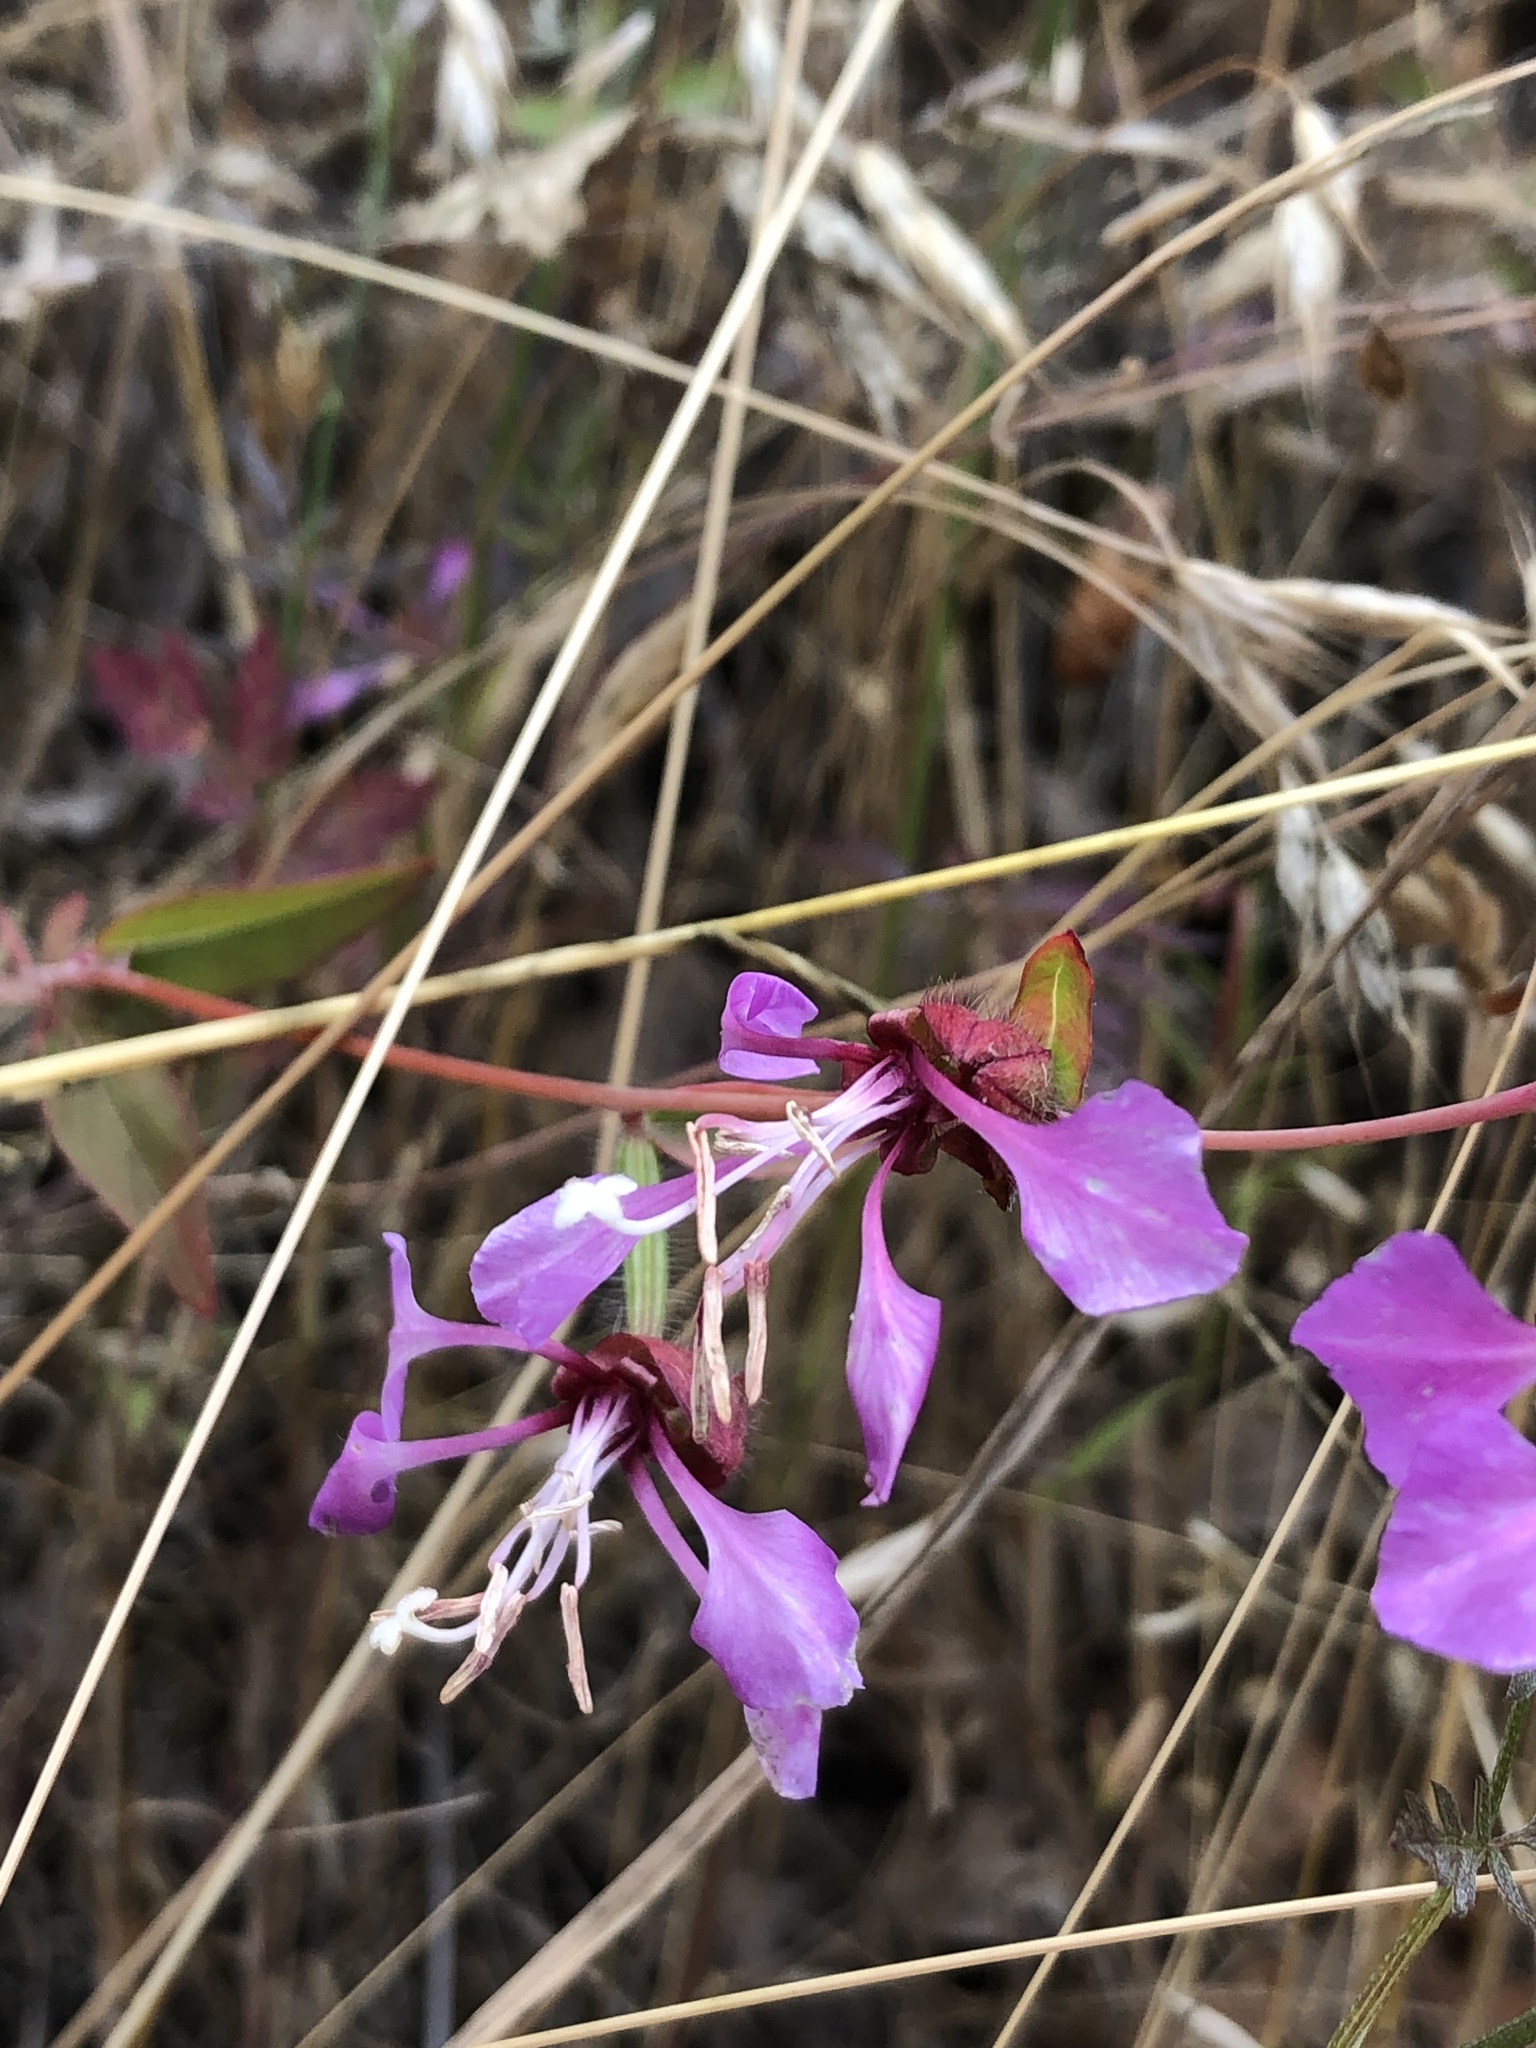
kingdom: Plantae
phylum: Tracheophyta
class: Magnoliopsida
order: Myrtales
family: Onagraceae
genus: Clarkia
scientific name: Clarkia unguiculata
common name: Clarkia
